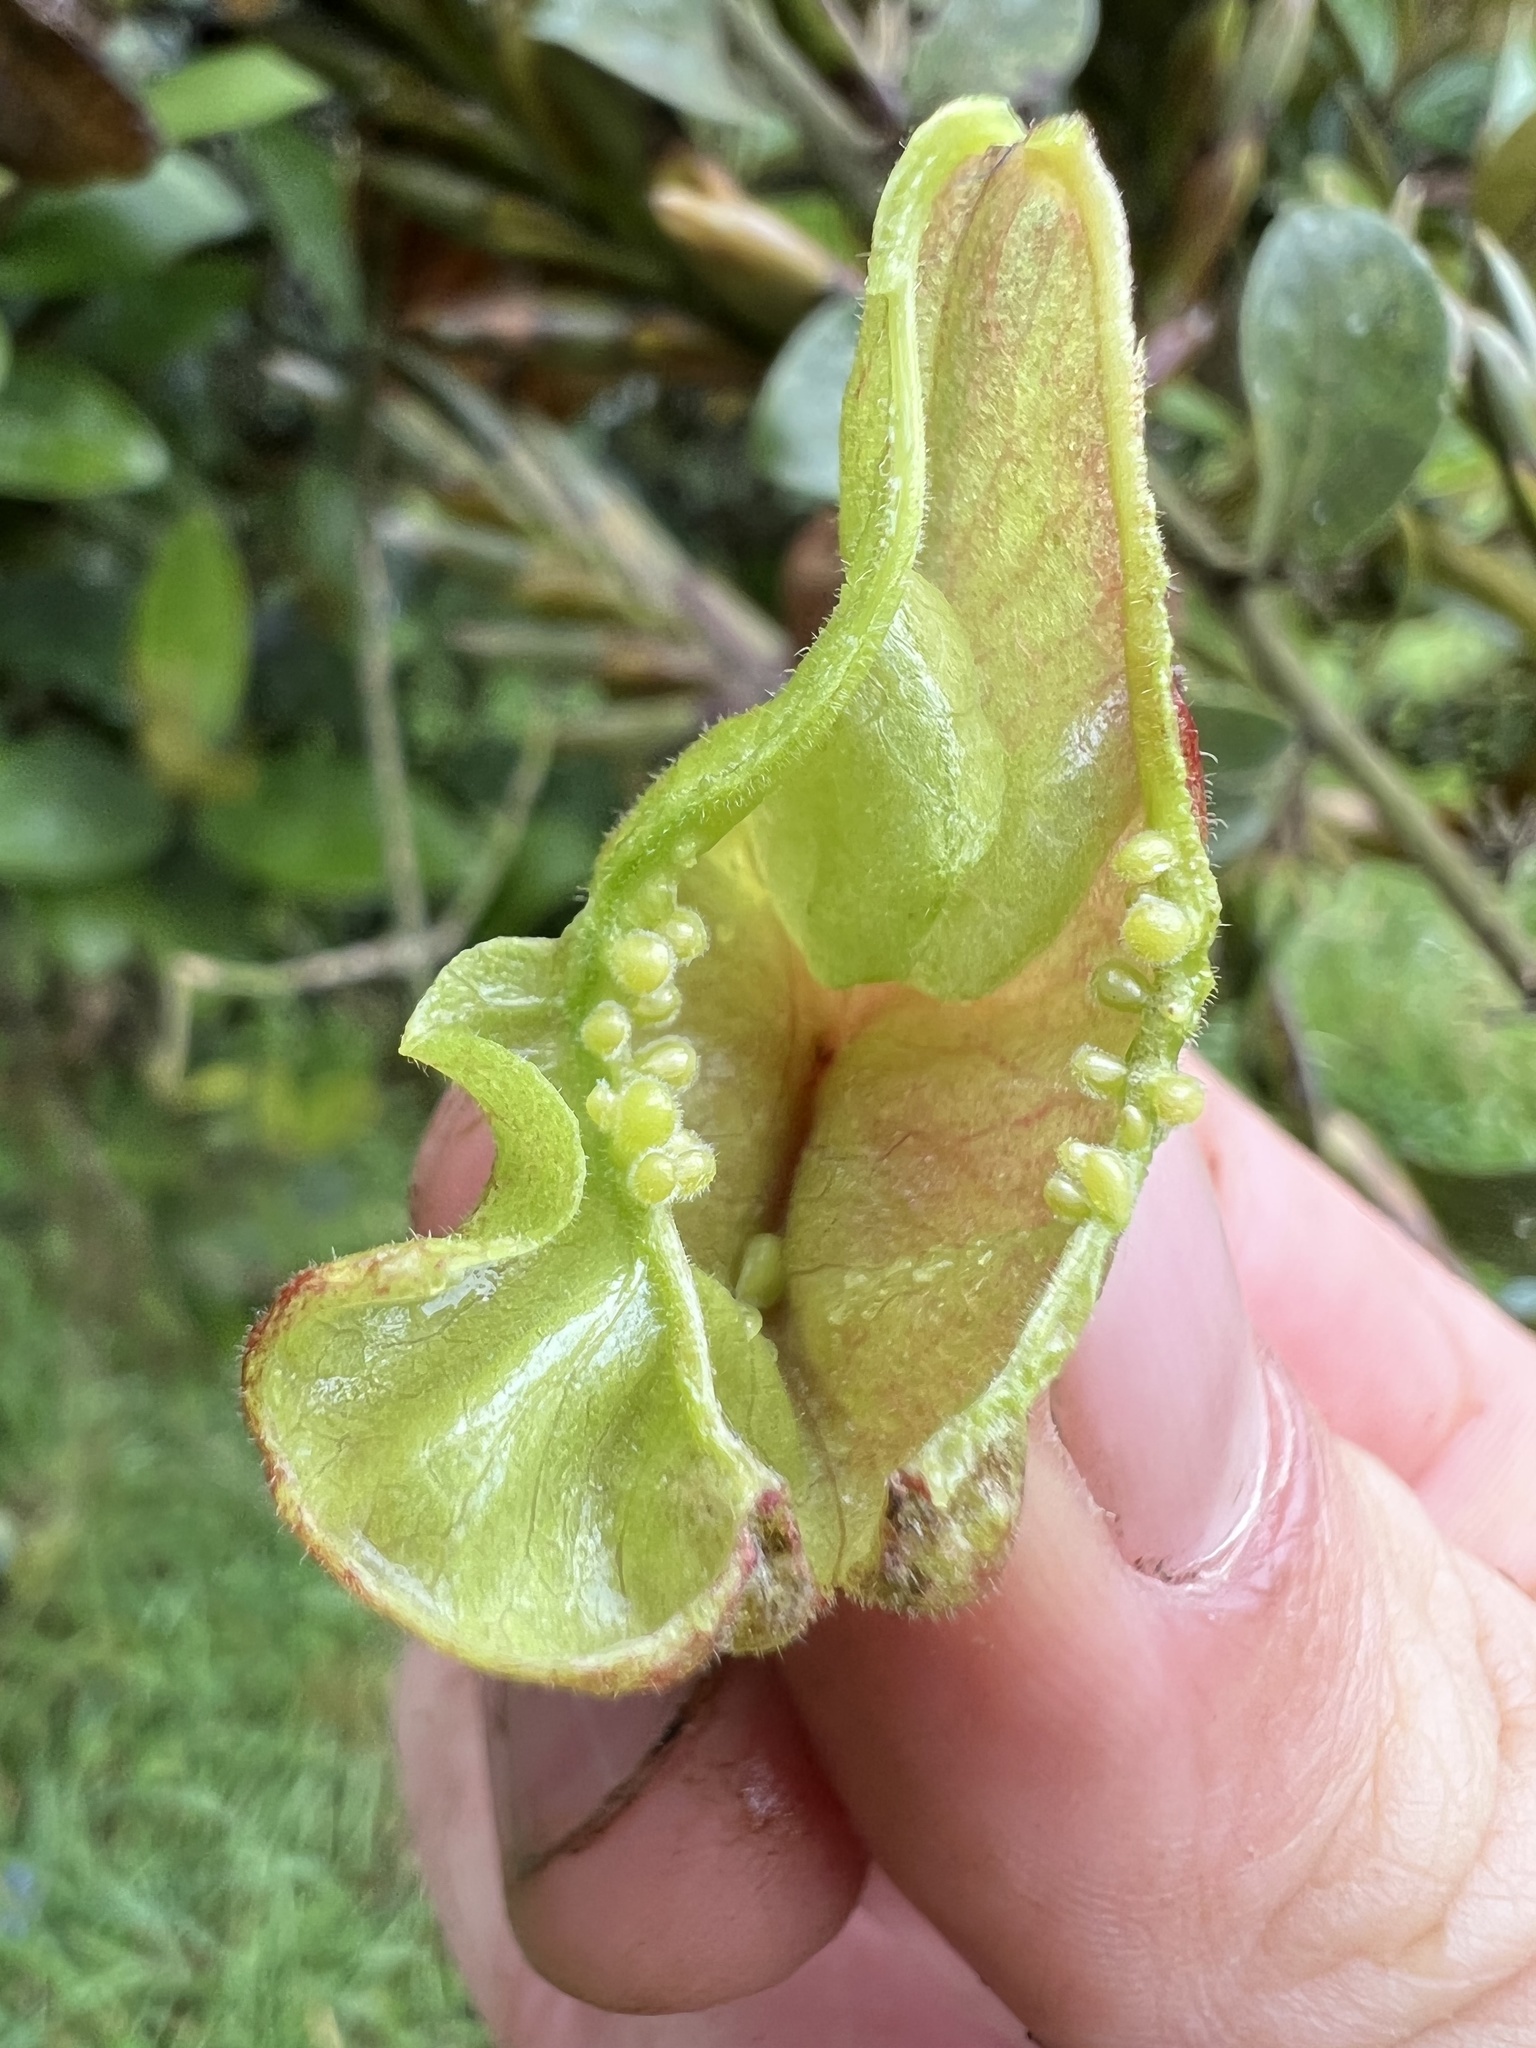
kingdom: Plantae
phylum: Tracheophyta
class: Magnoliopsida
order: Malpighiales
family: Violaceae
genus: Anchietea
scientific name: Anchietea frangulifolia
